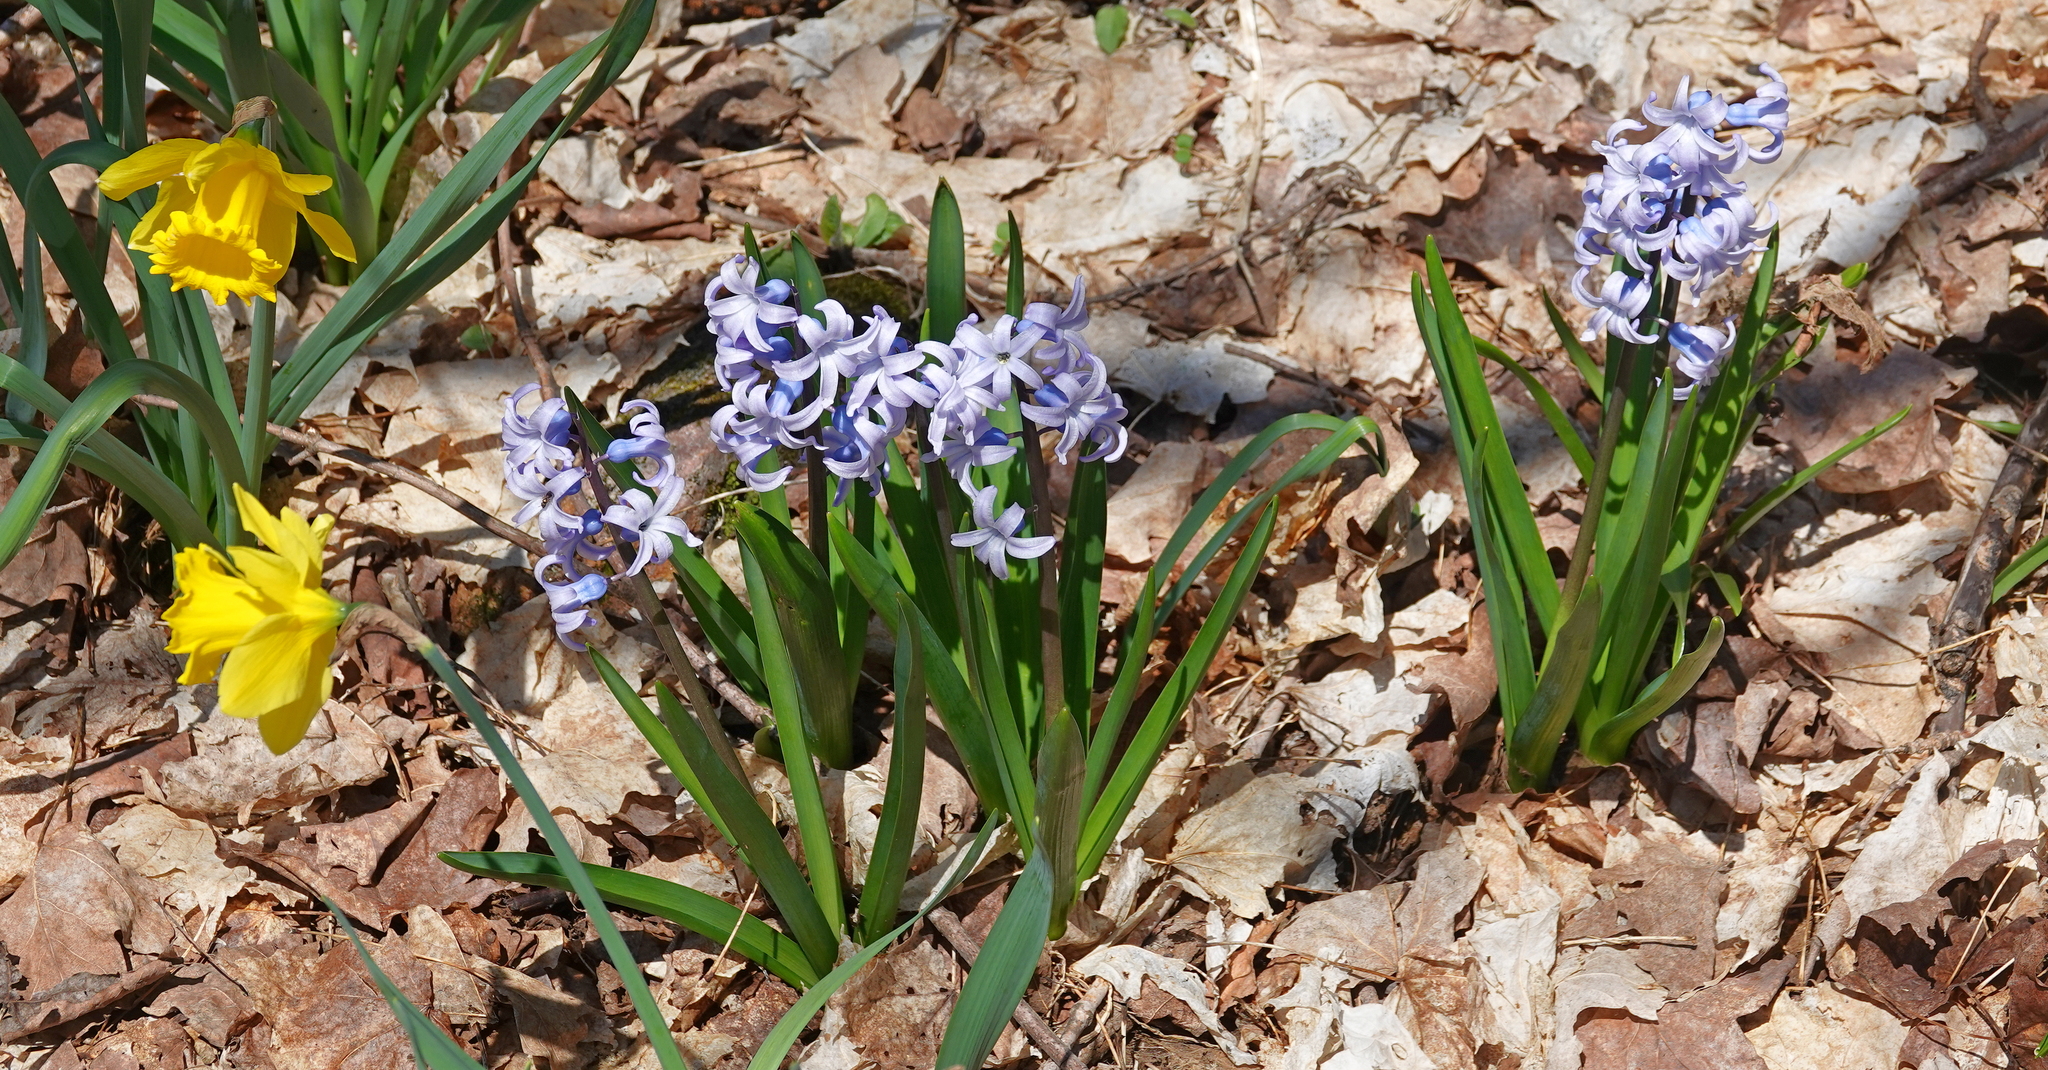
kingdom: Plantae
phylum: Tracheophyta
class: Liliopsida
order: Asparagales
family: Asparagaceae
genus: Hyacinthus
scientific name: Hyacinthus orientalis
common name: Hyacinth
